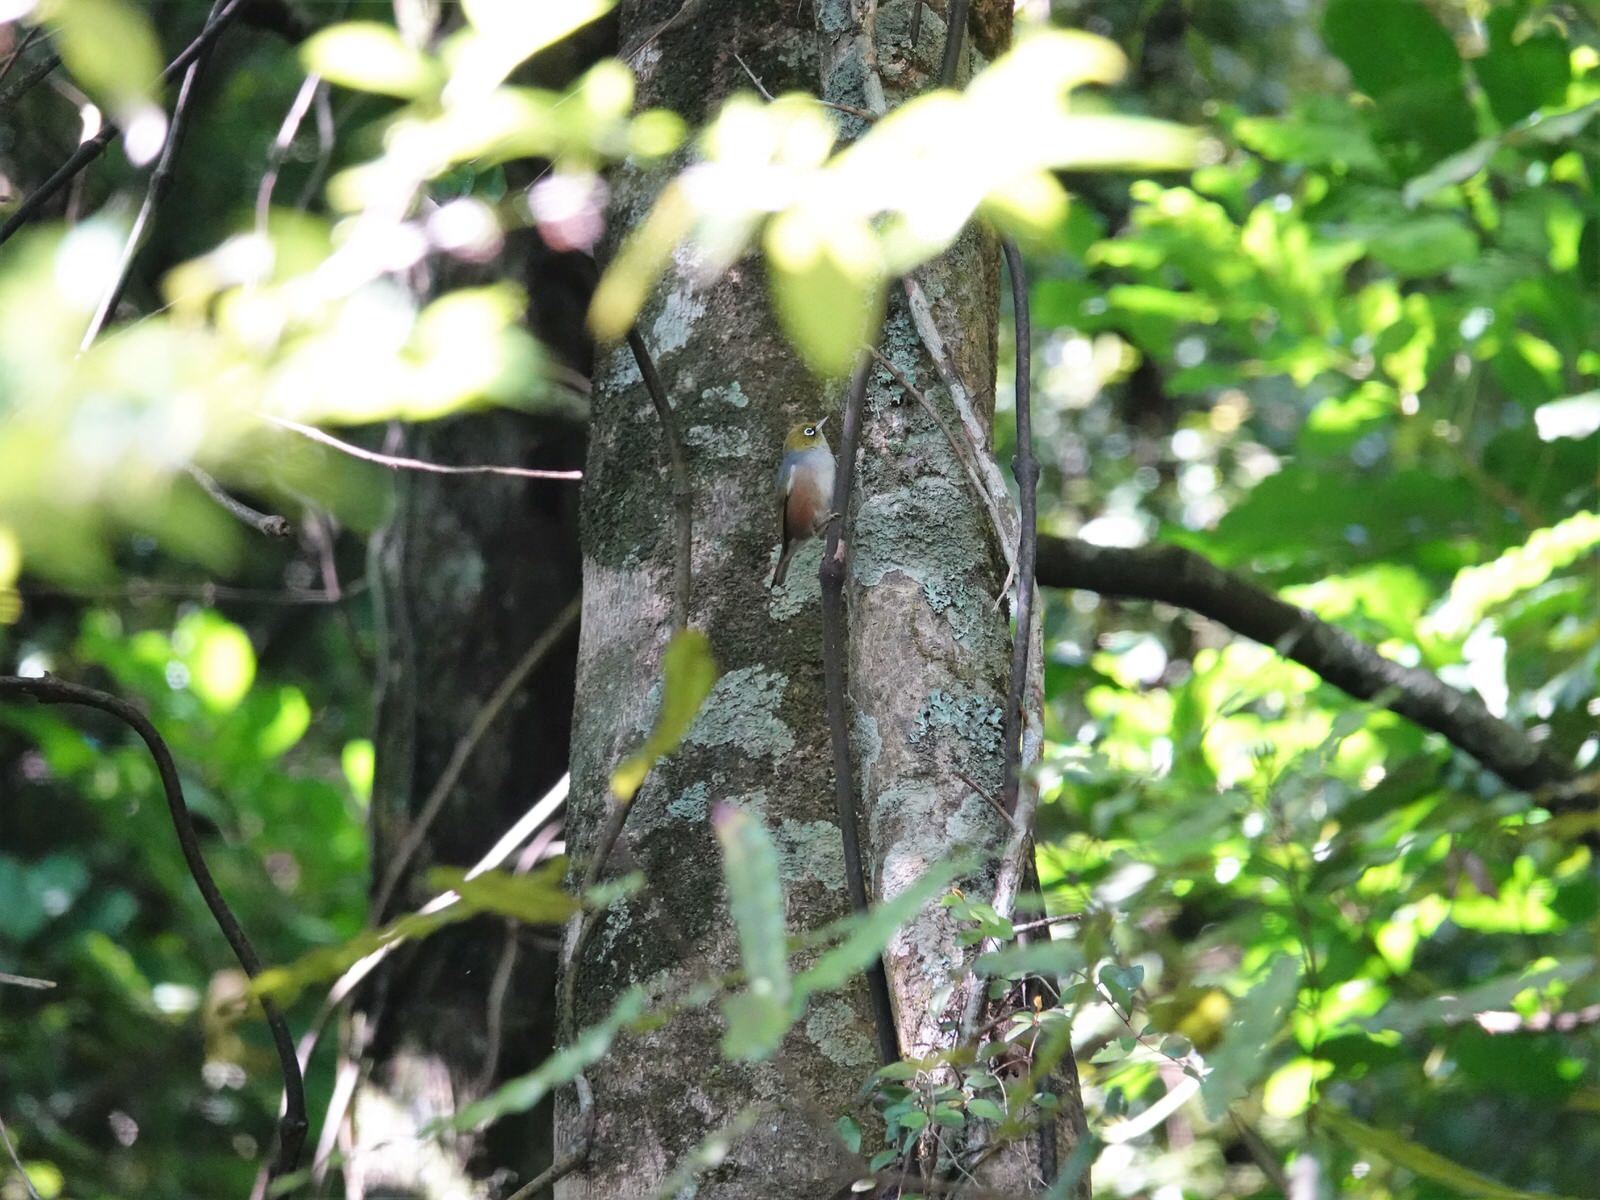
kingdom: Animalia
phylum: Chordata
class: Aves
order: Passeriformes
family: Zosteropidae
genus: Zosterops
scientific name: Zosterops lateralis
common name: Silvereye
